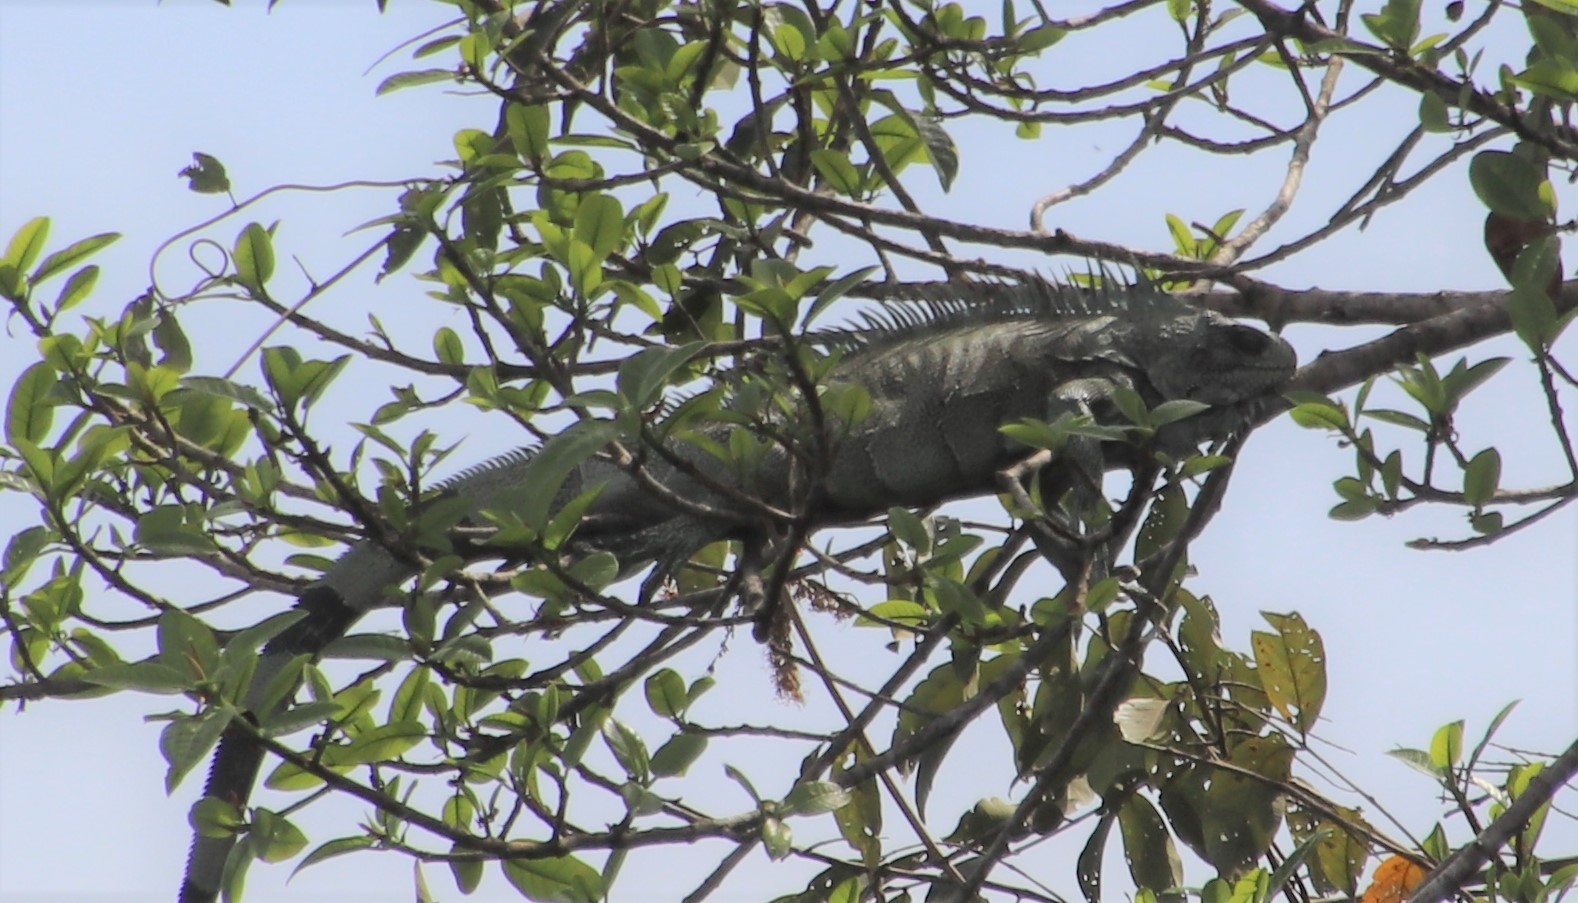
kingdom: Animalia
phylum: Chordata
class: Squamata
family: Iguanidae
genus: Iguana
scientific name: Iguana iguana
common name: Green iguana
